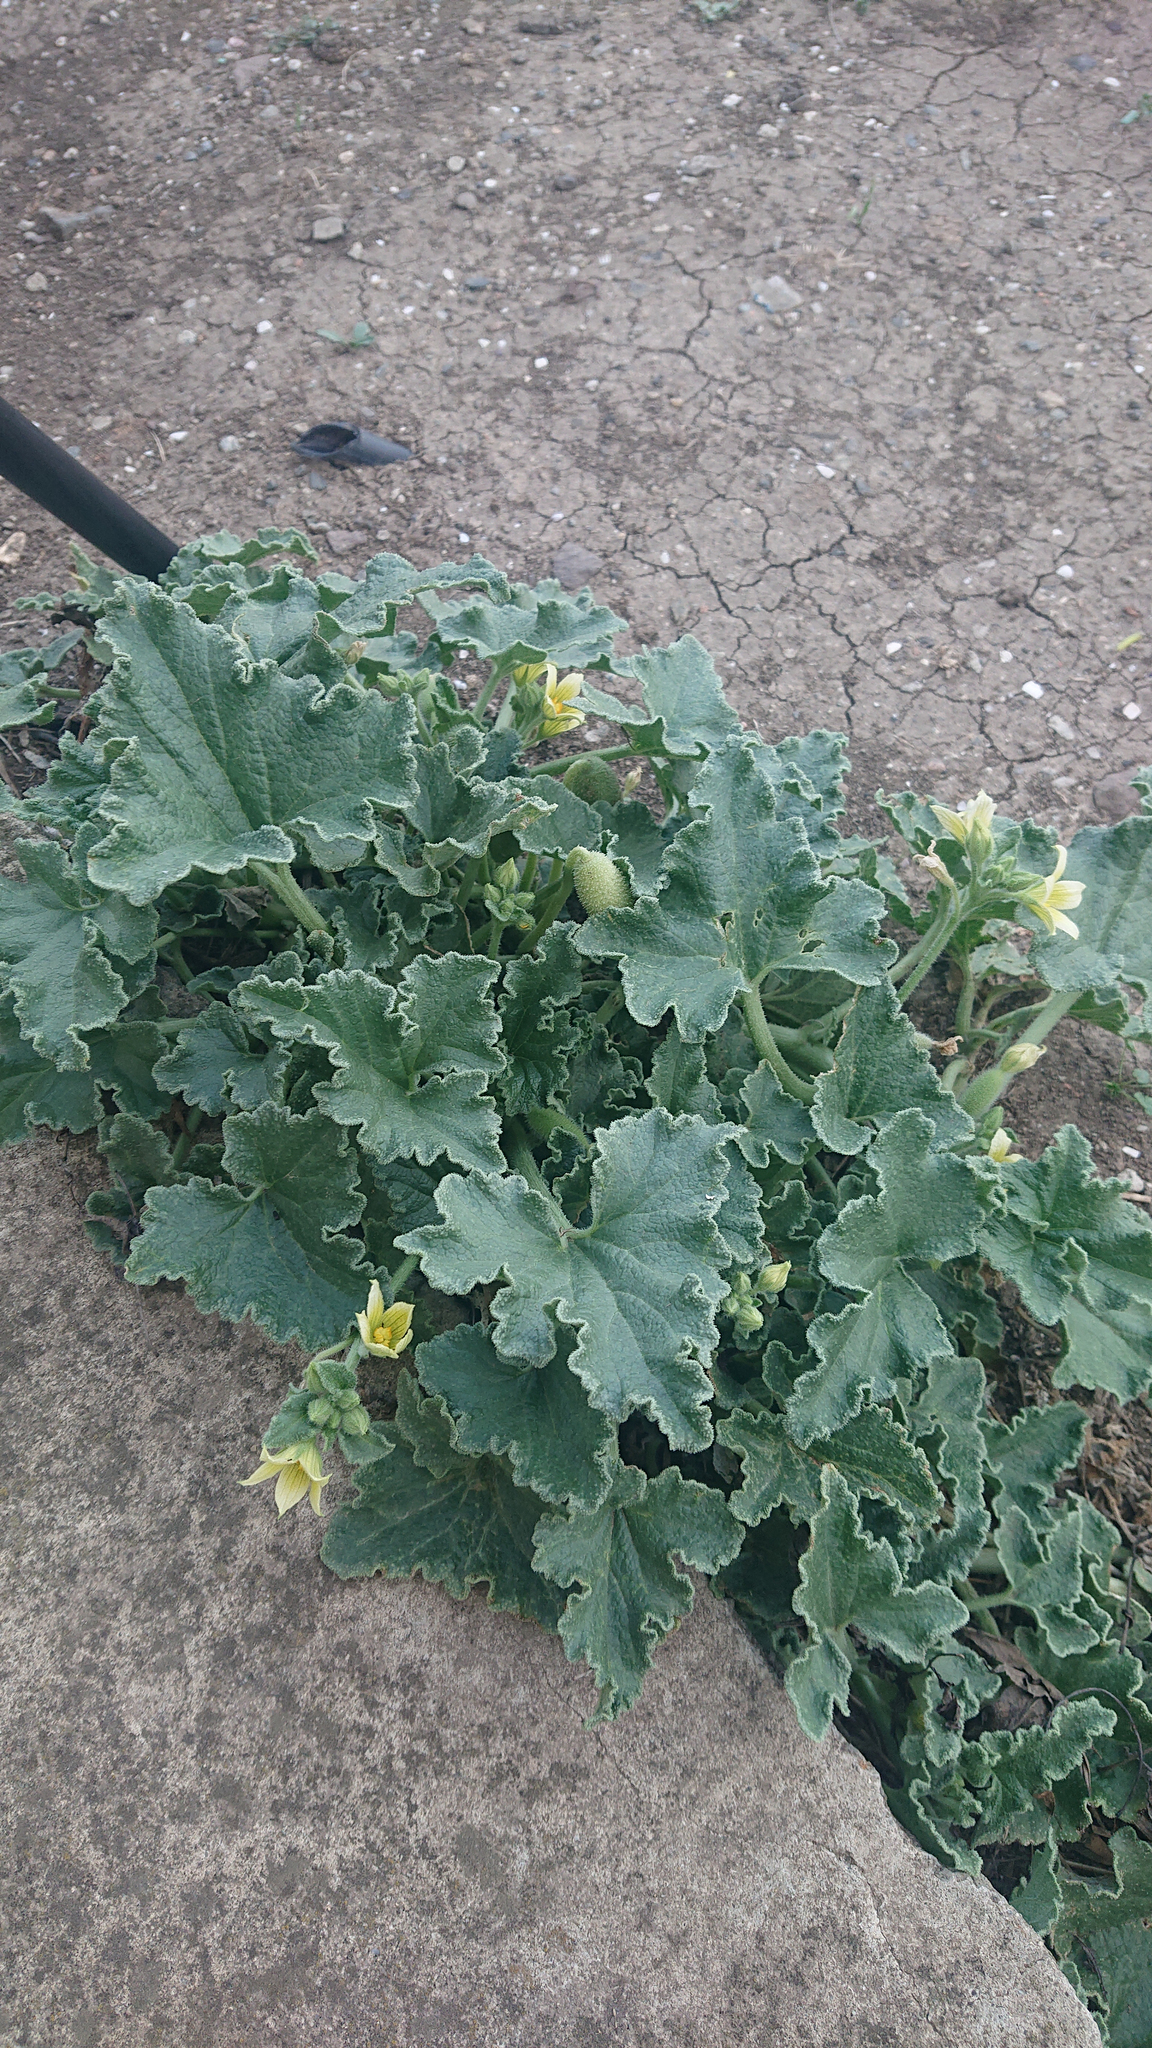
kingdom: Plantae
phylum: Tracheophyta
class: Magnoliopsida
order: Cucurbitales
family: Cucurbitaceae
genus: Ecballium
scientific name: Ecballium elaterium
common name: Squirting cucumber
